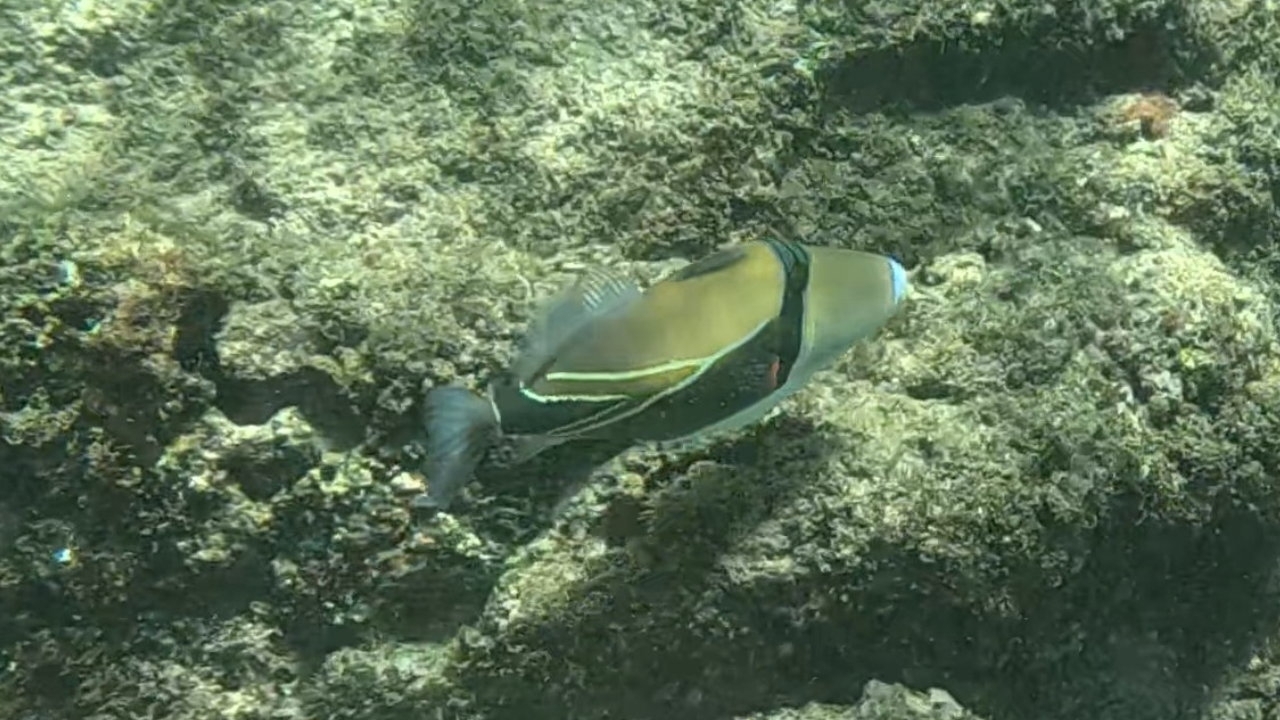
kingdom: Animalia
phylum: Chordata
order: Tetraodontiformes
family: Balistidae
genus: Rhinecanthus
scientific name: Rhinecanthus rectangulus
